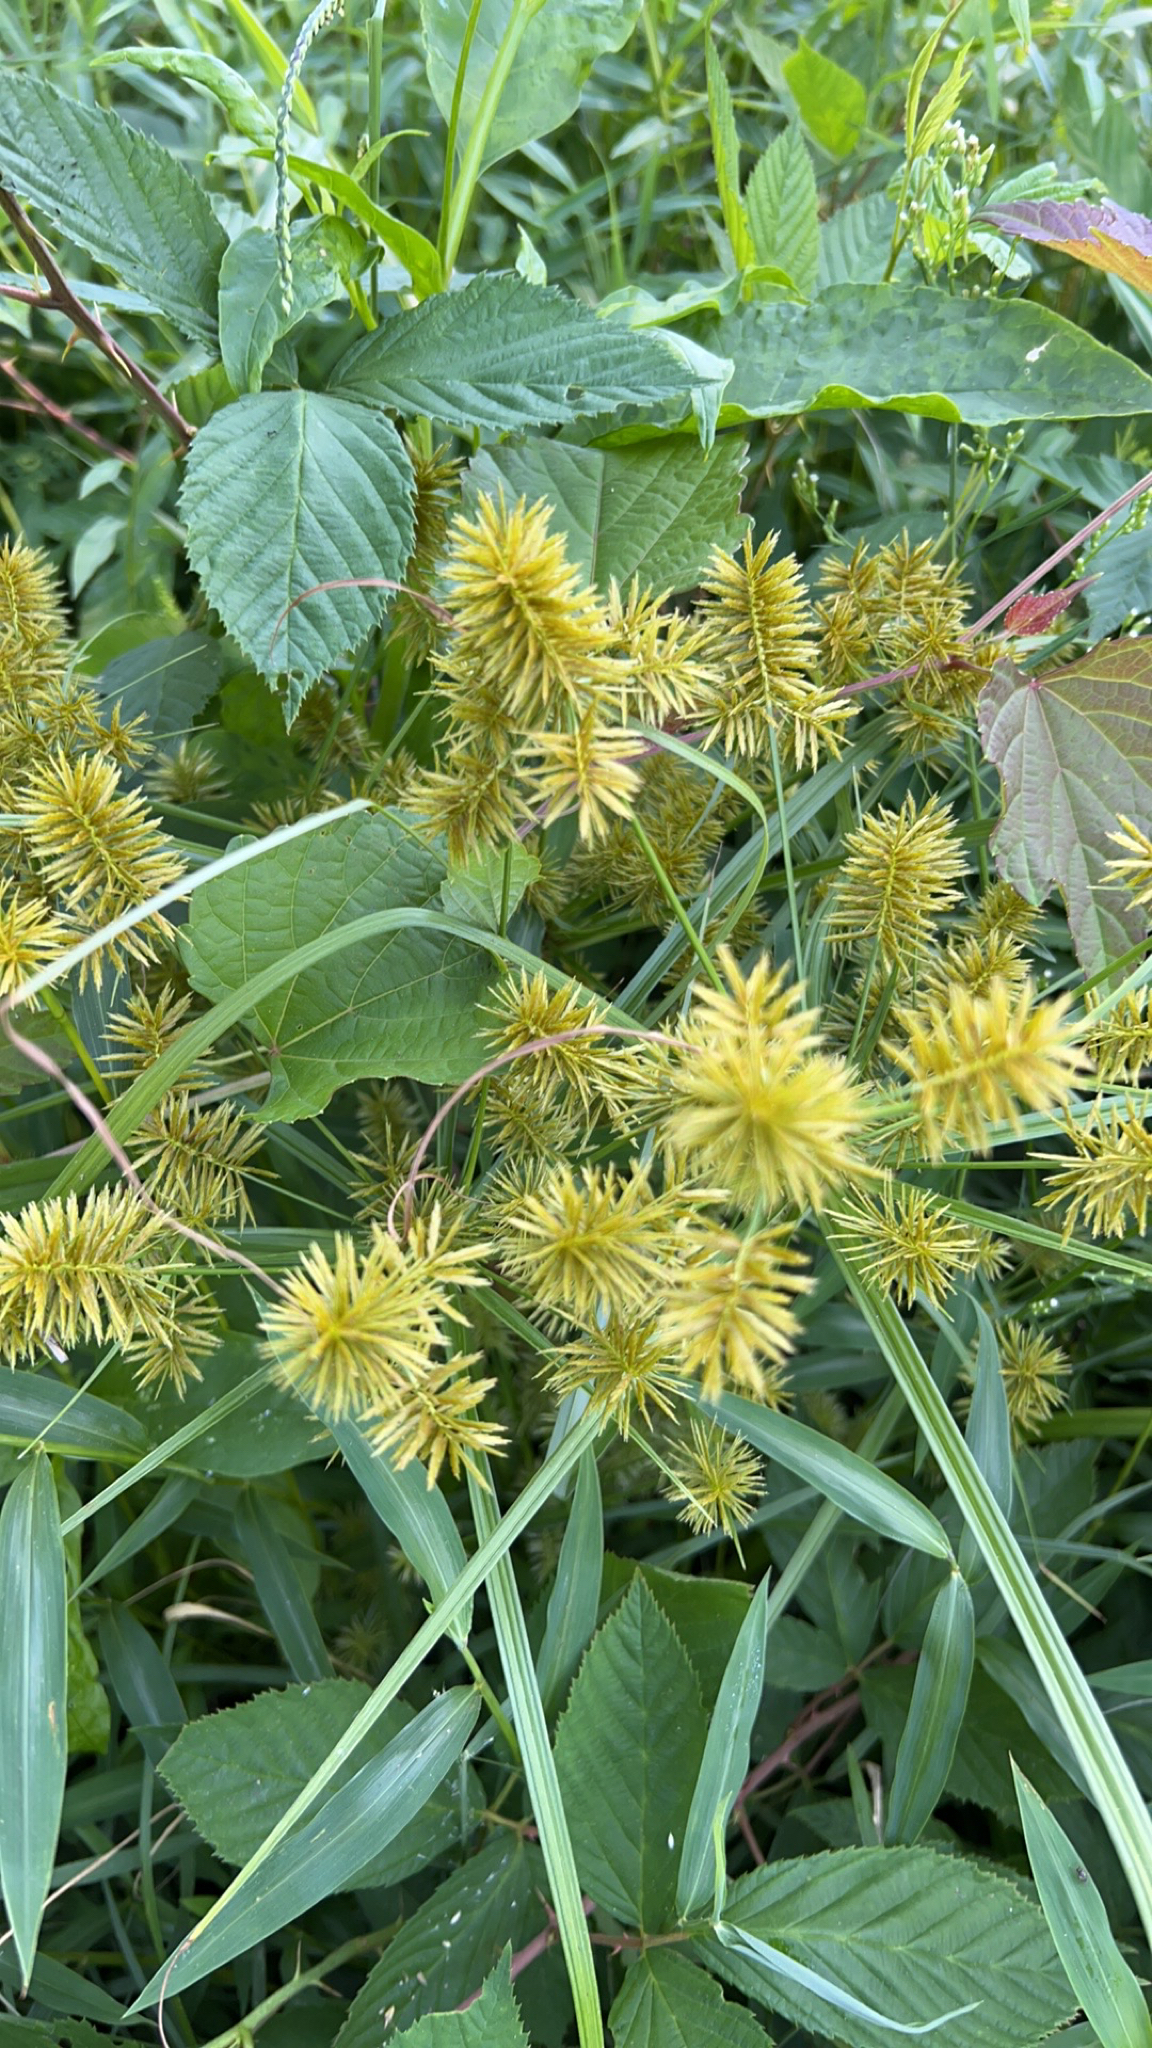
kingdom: Plantae
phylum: Tracheophyta
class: Liliopsida
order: Poales
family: Cyperaceae
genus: Cyperus
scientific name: Cyperus strigosus
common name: False nutsedge
